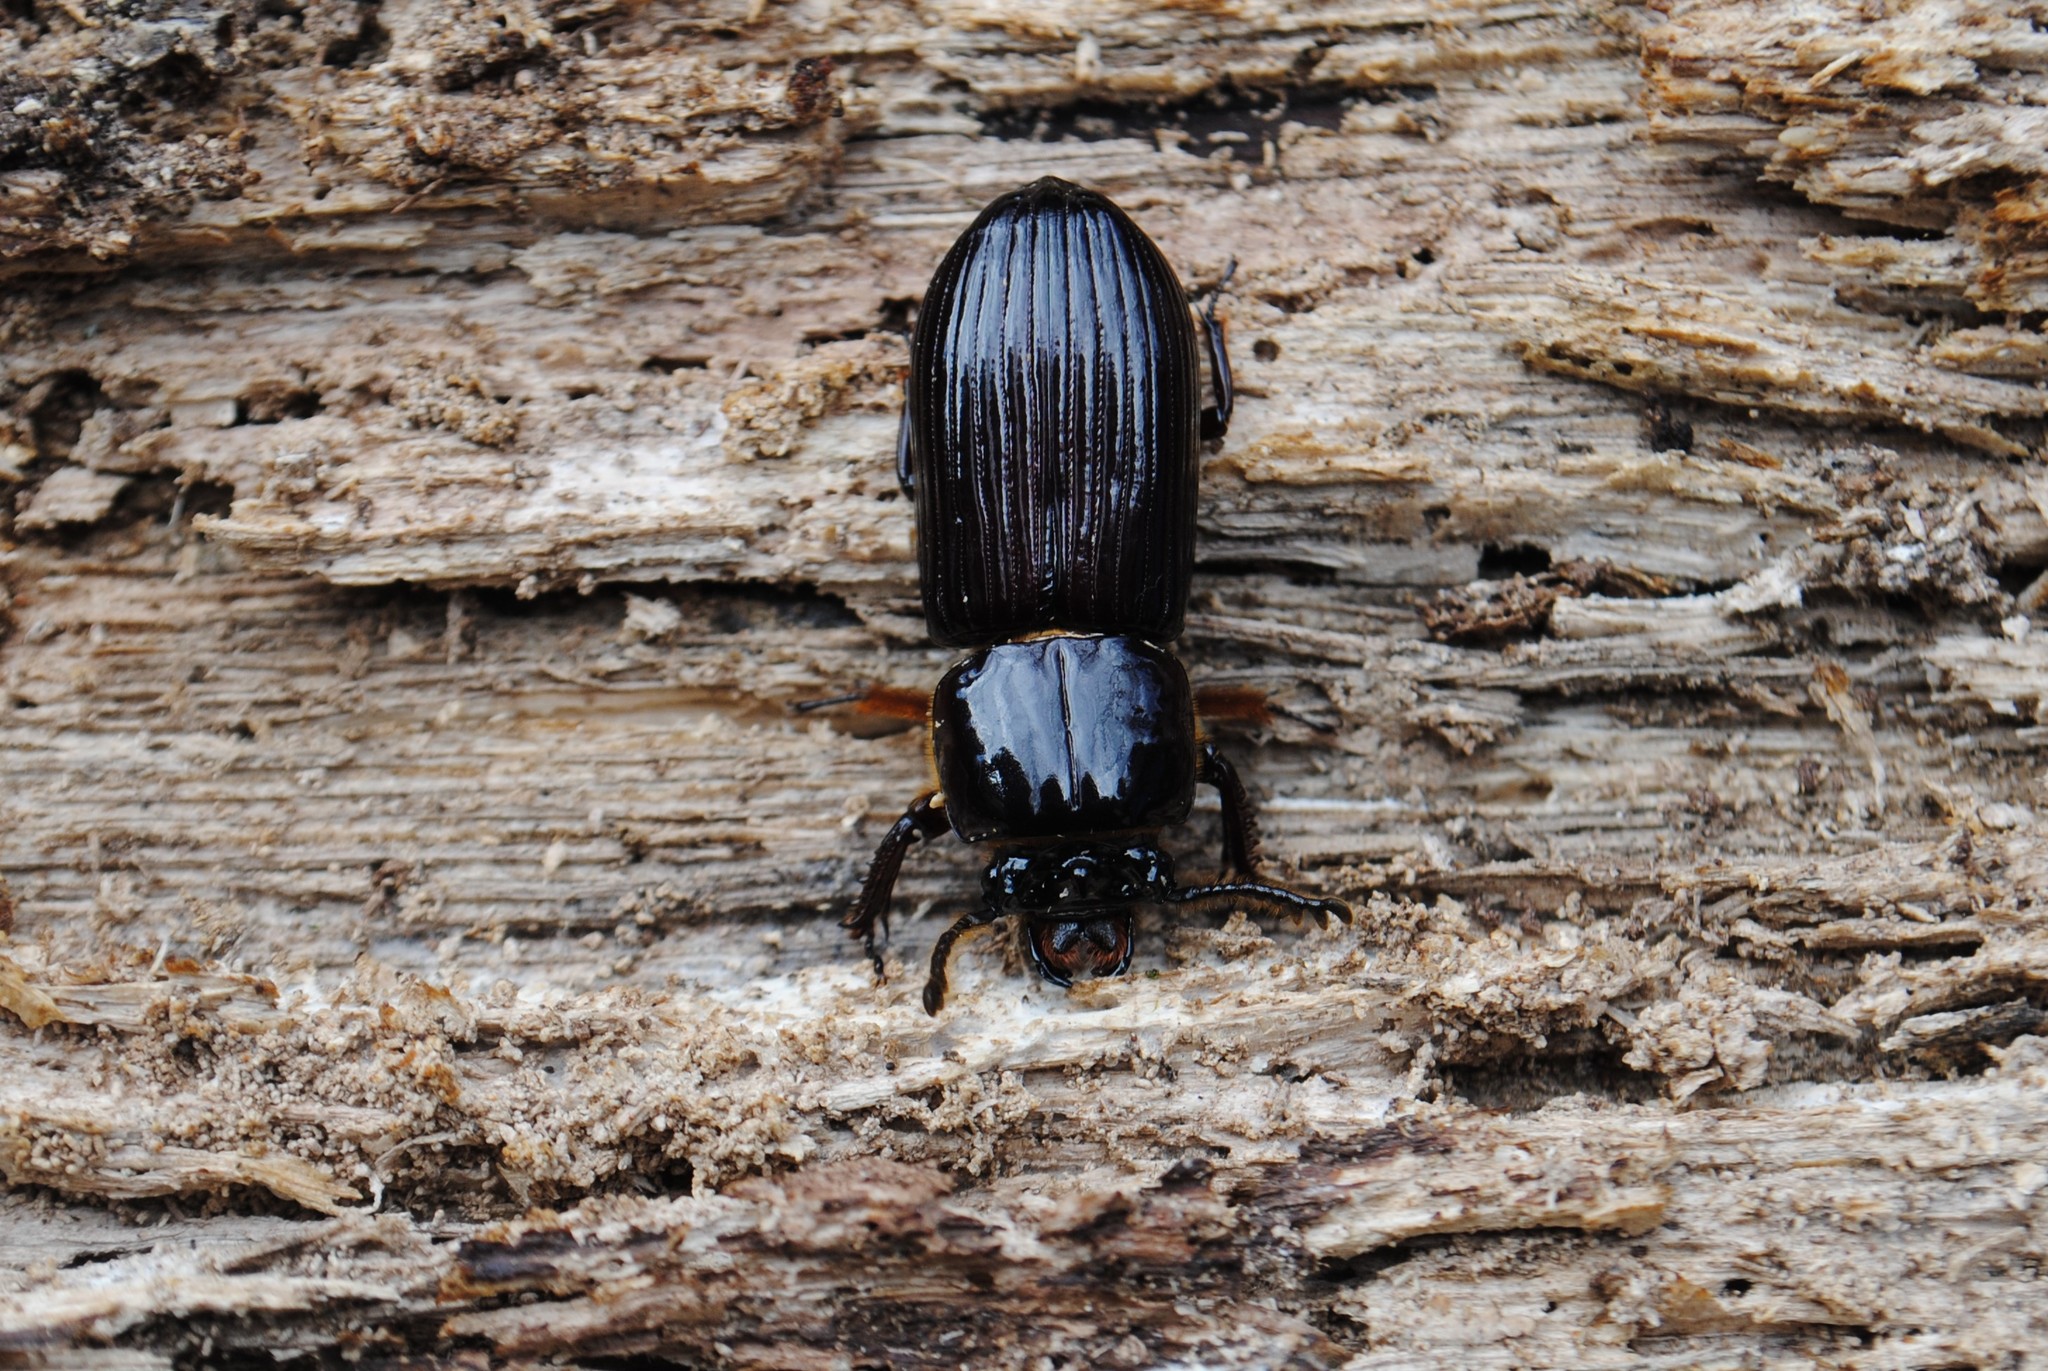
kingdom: Animalia
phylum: Arthropoda
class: Insecta
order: Coleoptera
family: Passalidae
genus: Odontotaenius
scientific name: Odontotaenius disjunctus
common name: Patent leather beetle
